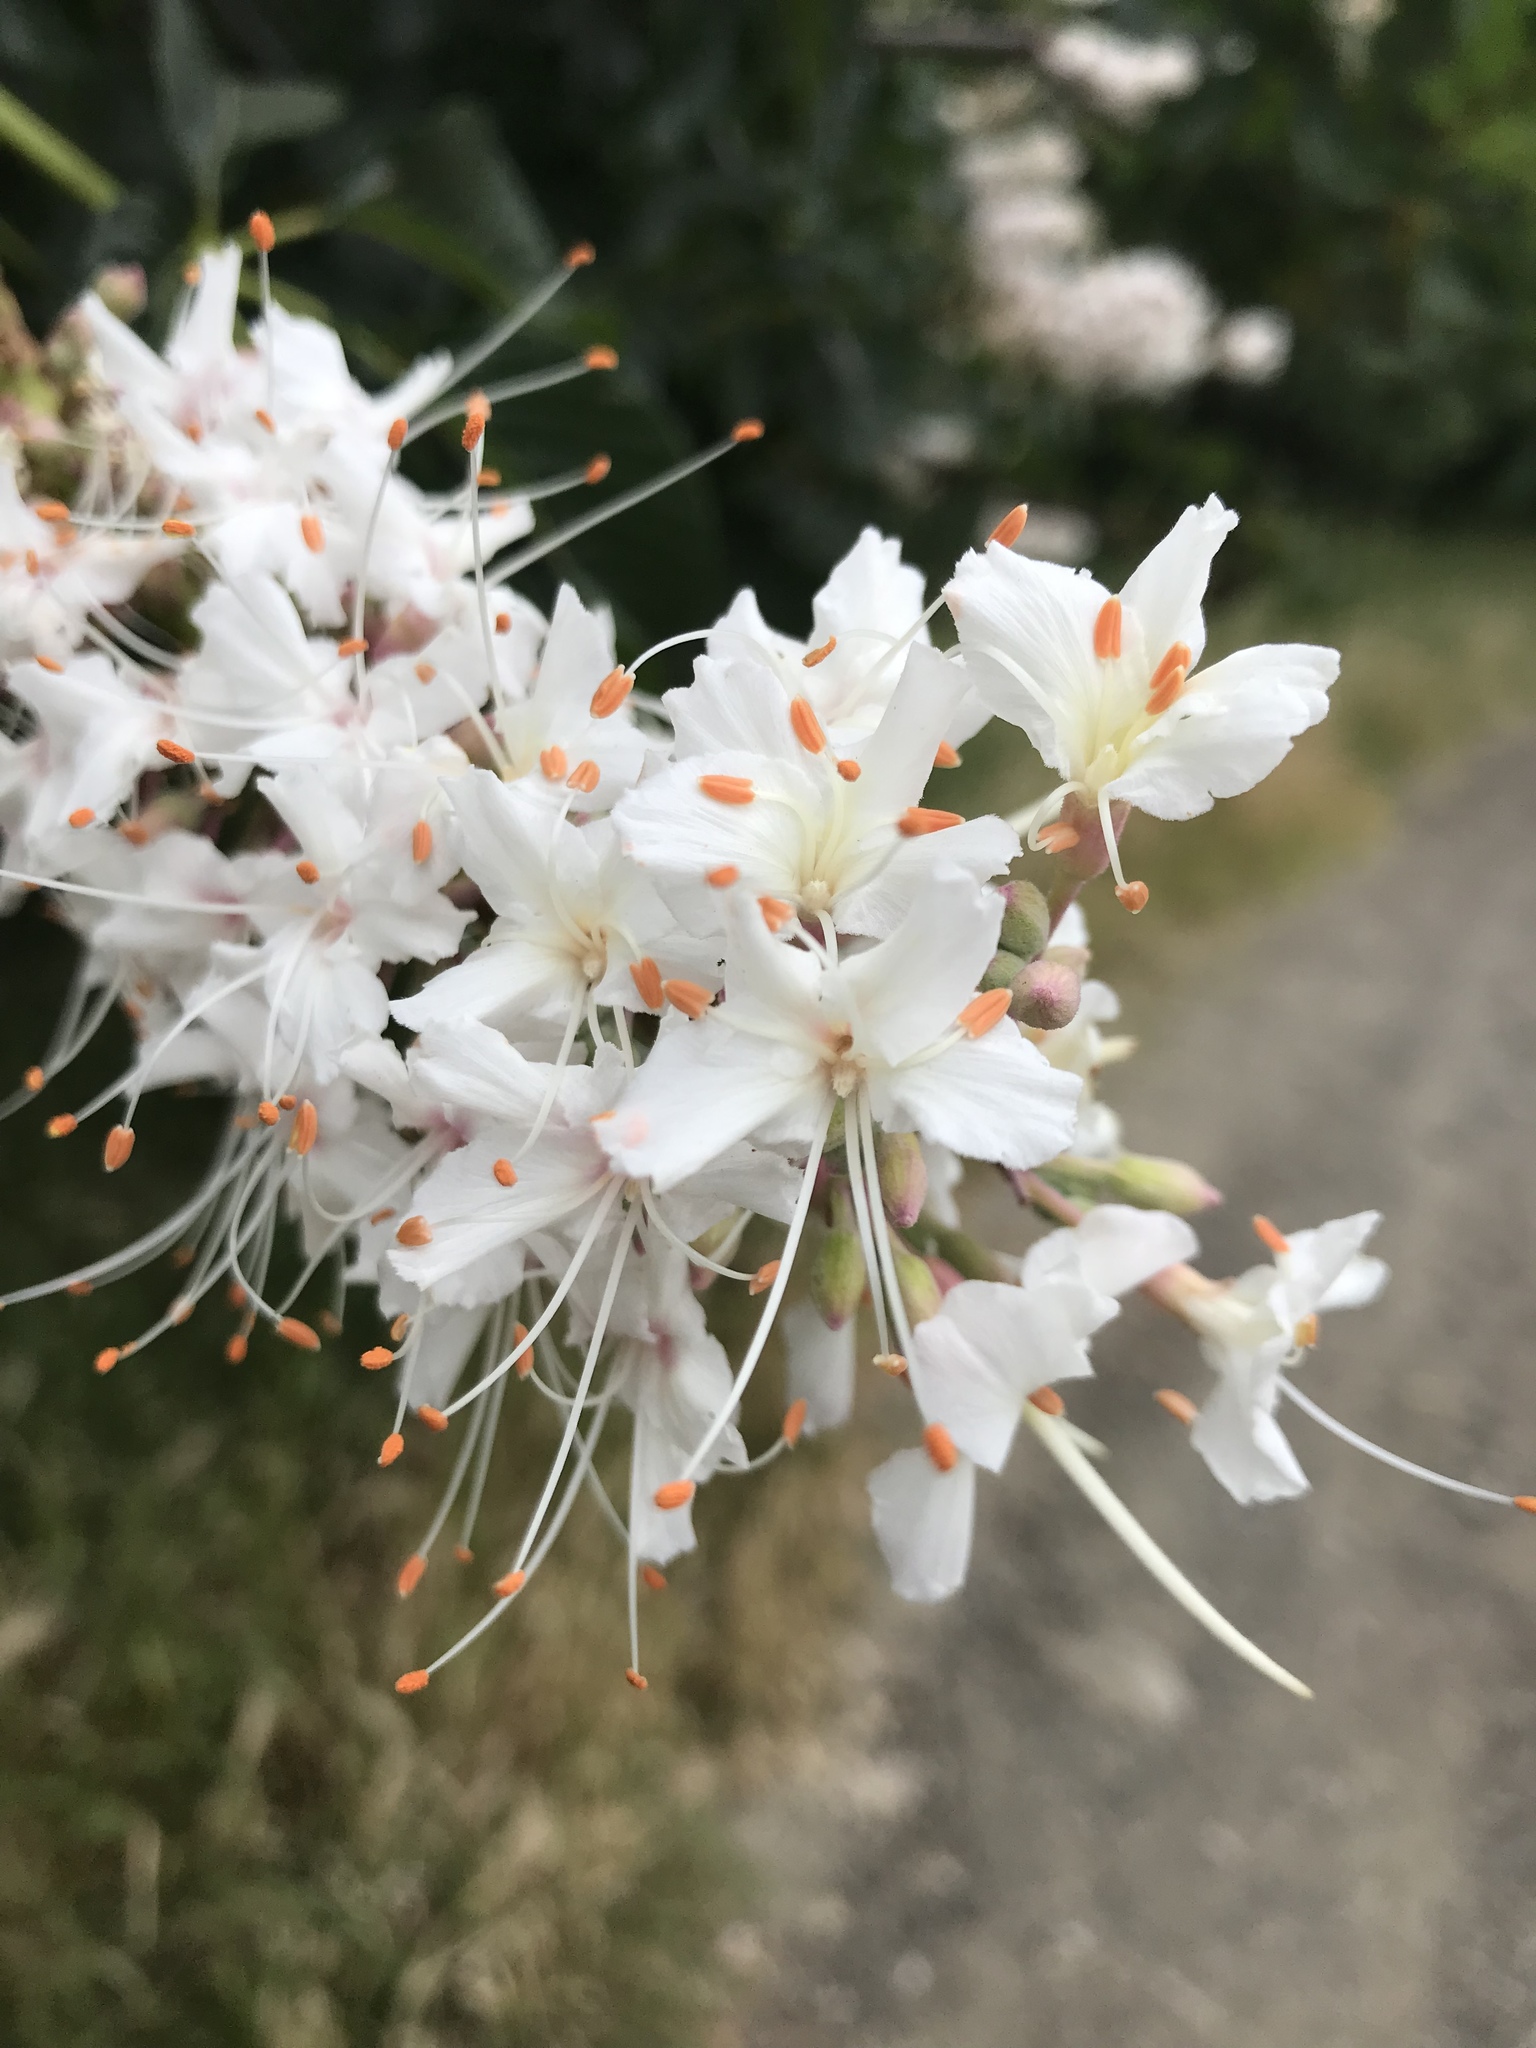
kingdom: Plantae
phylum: Tracheophyta
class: Magnoliopsida
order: Sapindales
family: Sapindaceae
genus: Aesculus
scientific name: Aesculus californica
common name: California buckeye
